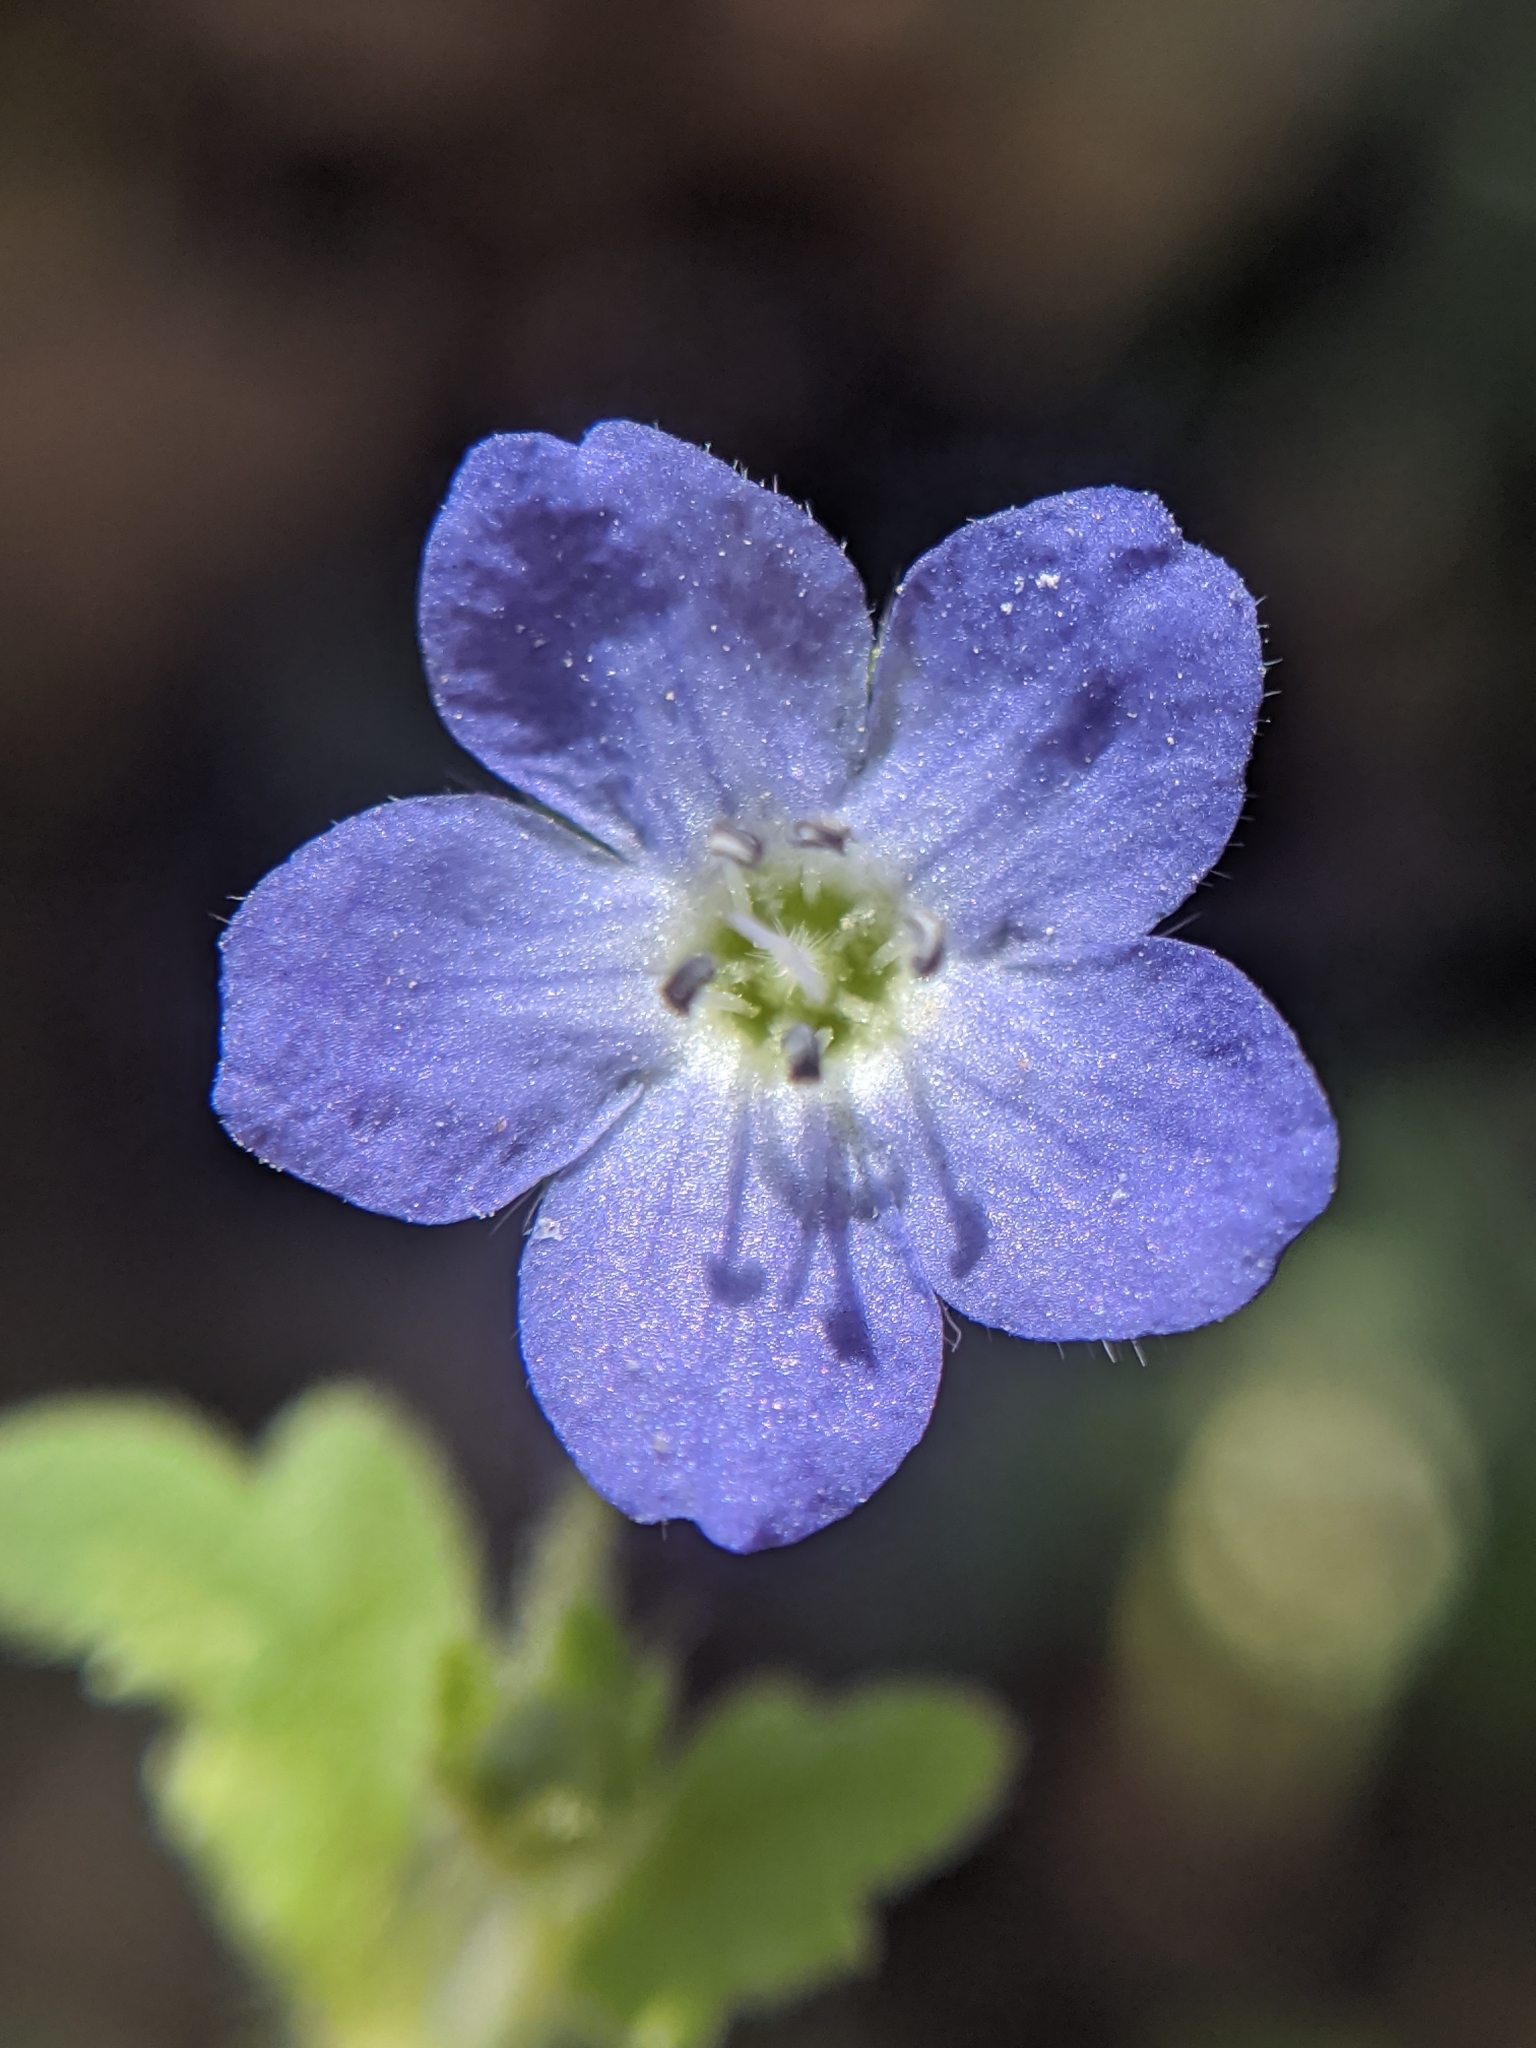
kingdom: Plantae
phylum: Tracheophyta
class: Magnoliopsida
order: Boraginales
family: Hydrophyllaceae
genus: Nemophila
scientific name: Nemophila pulchella
